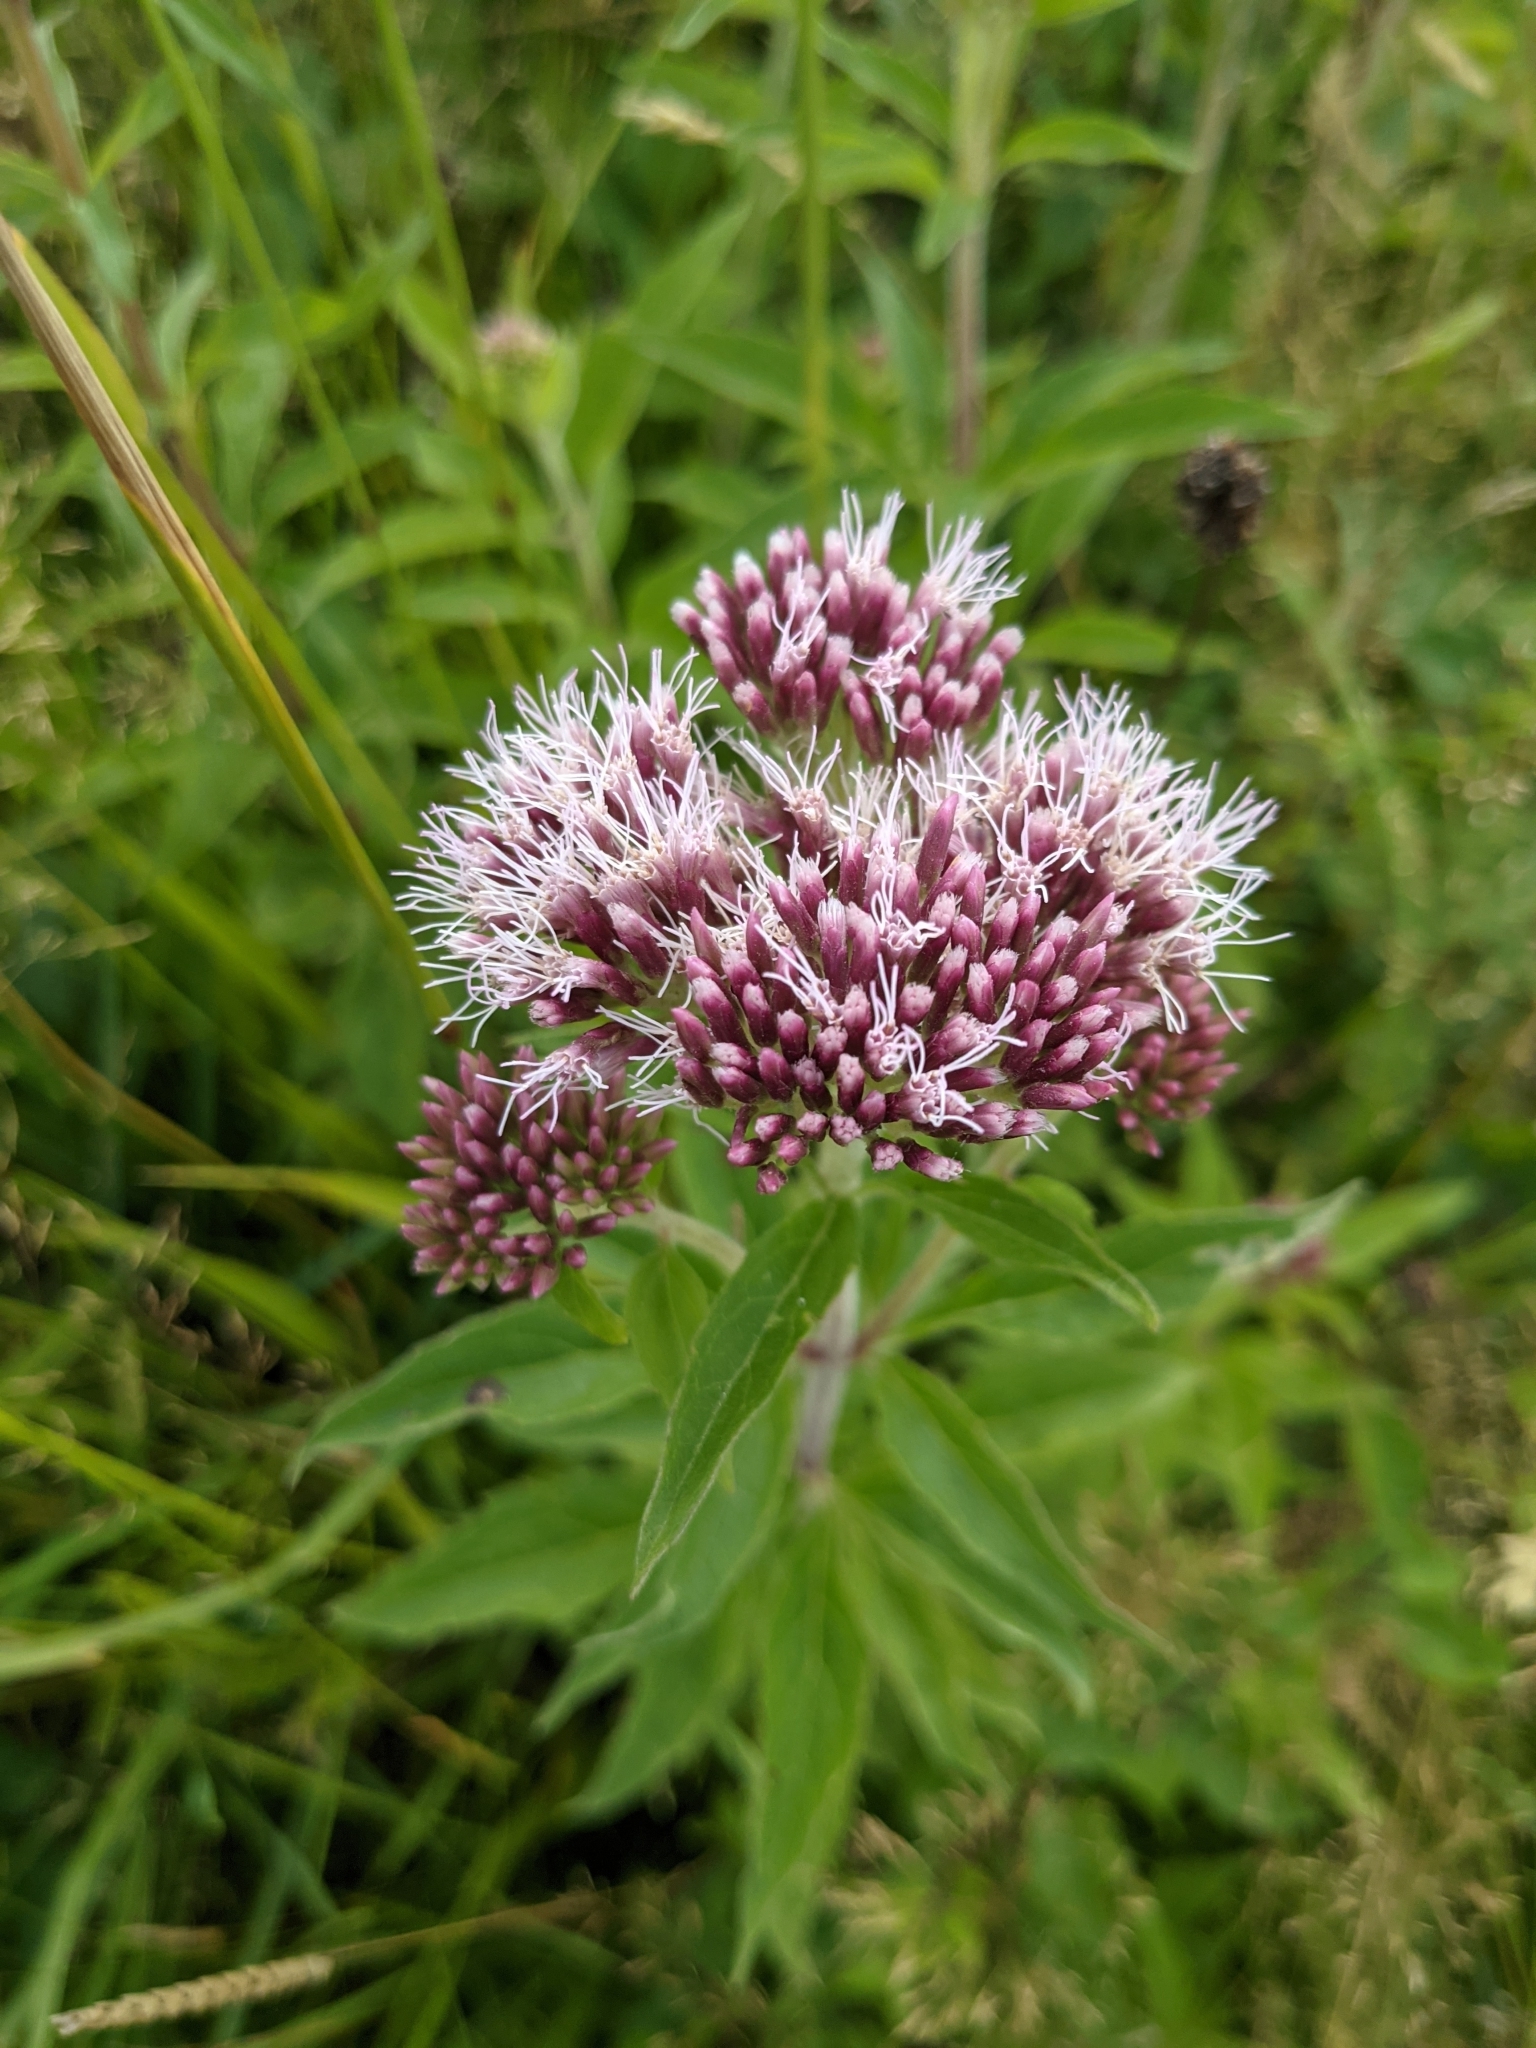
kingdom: Plantae
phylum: Tracheophyta
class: Magnoliopsida
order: Asterales
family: Asteraceae
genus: Eupatorium
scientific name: Eupatorium cannabinum
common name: Hemp-agrimony
